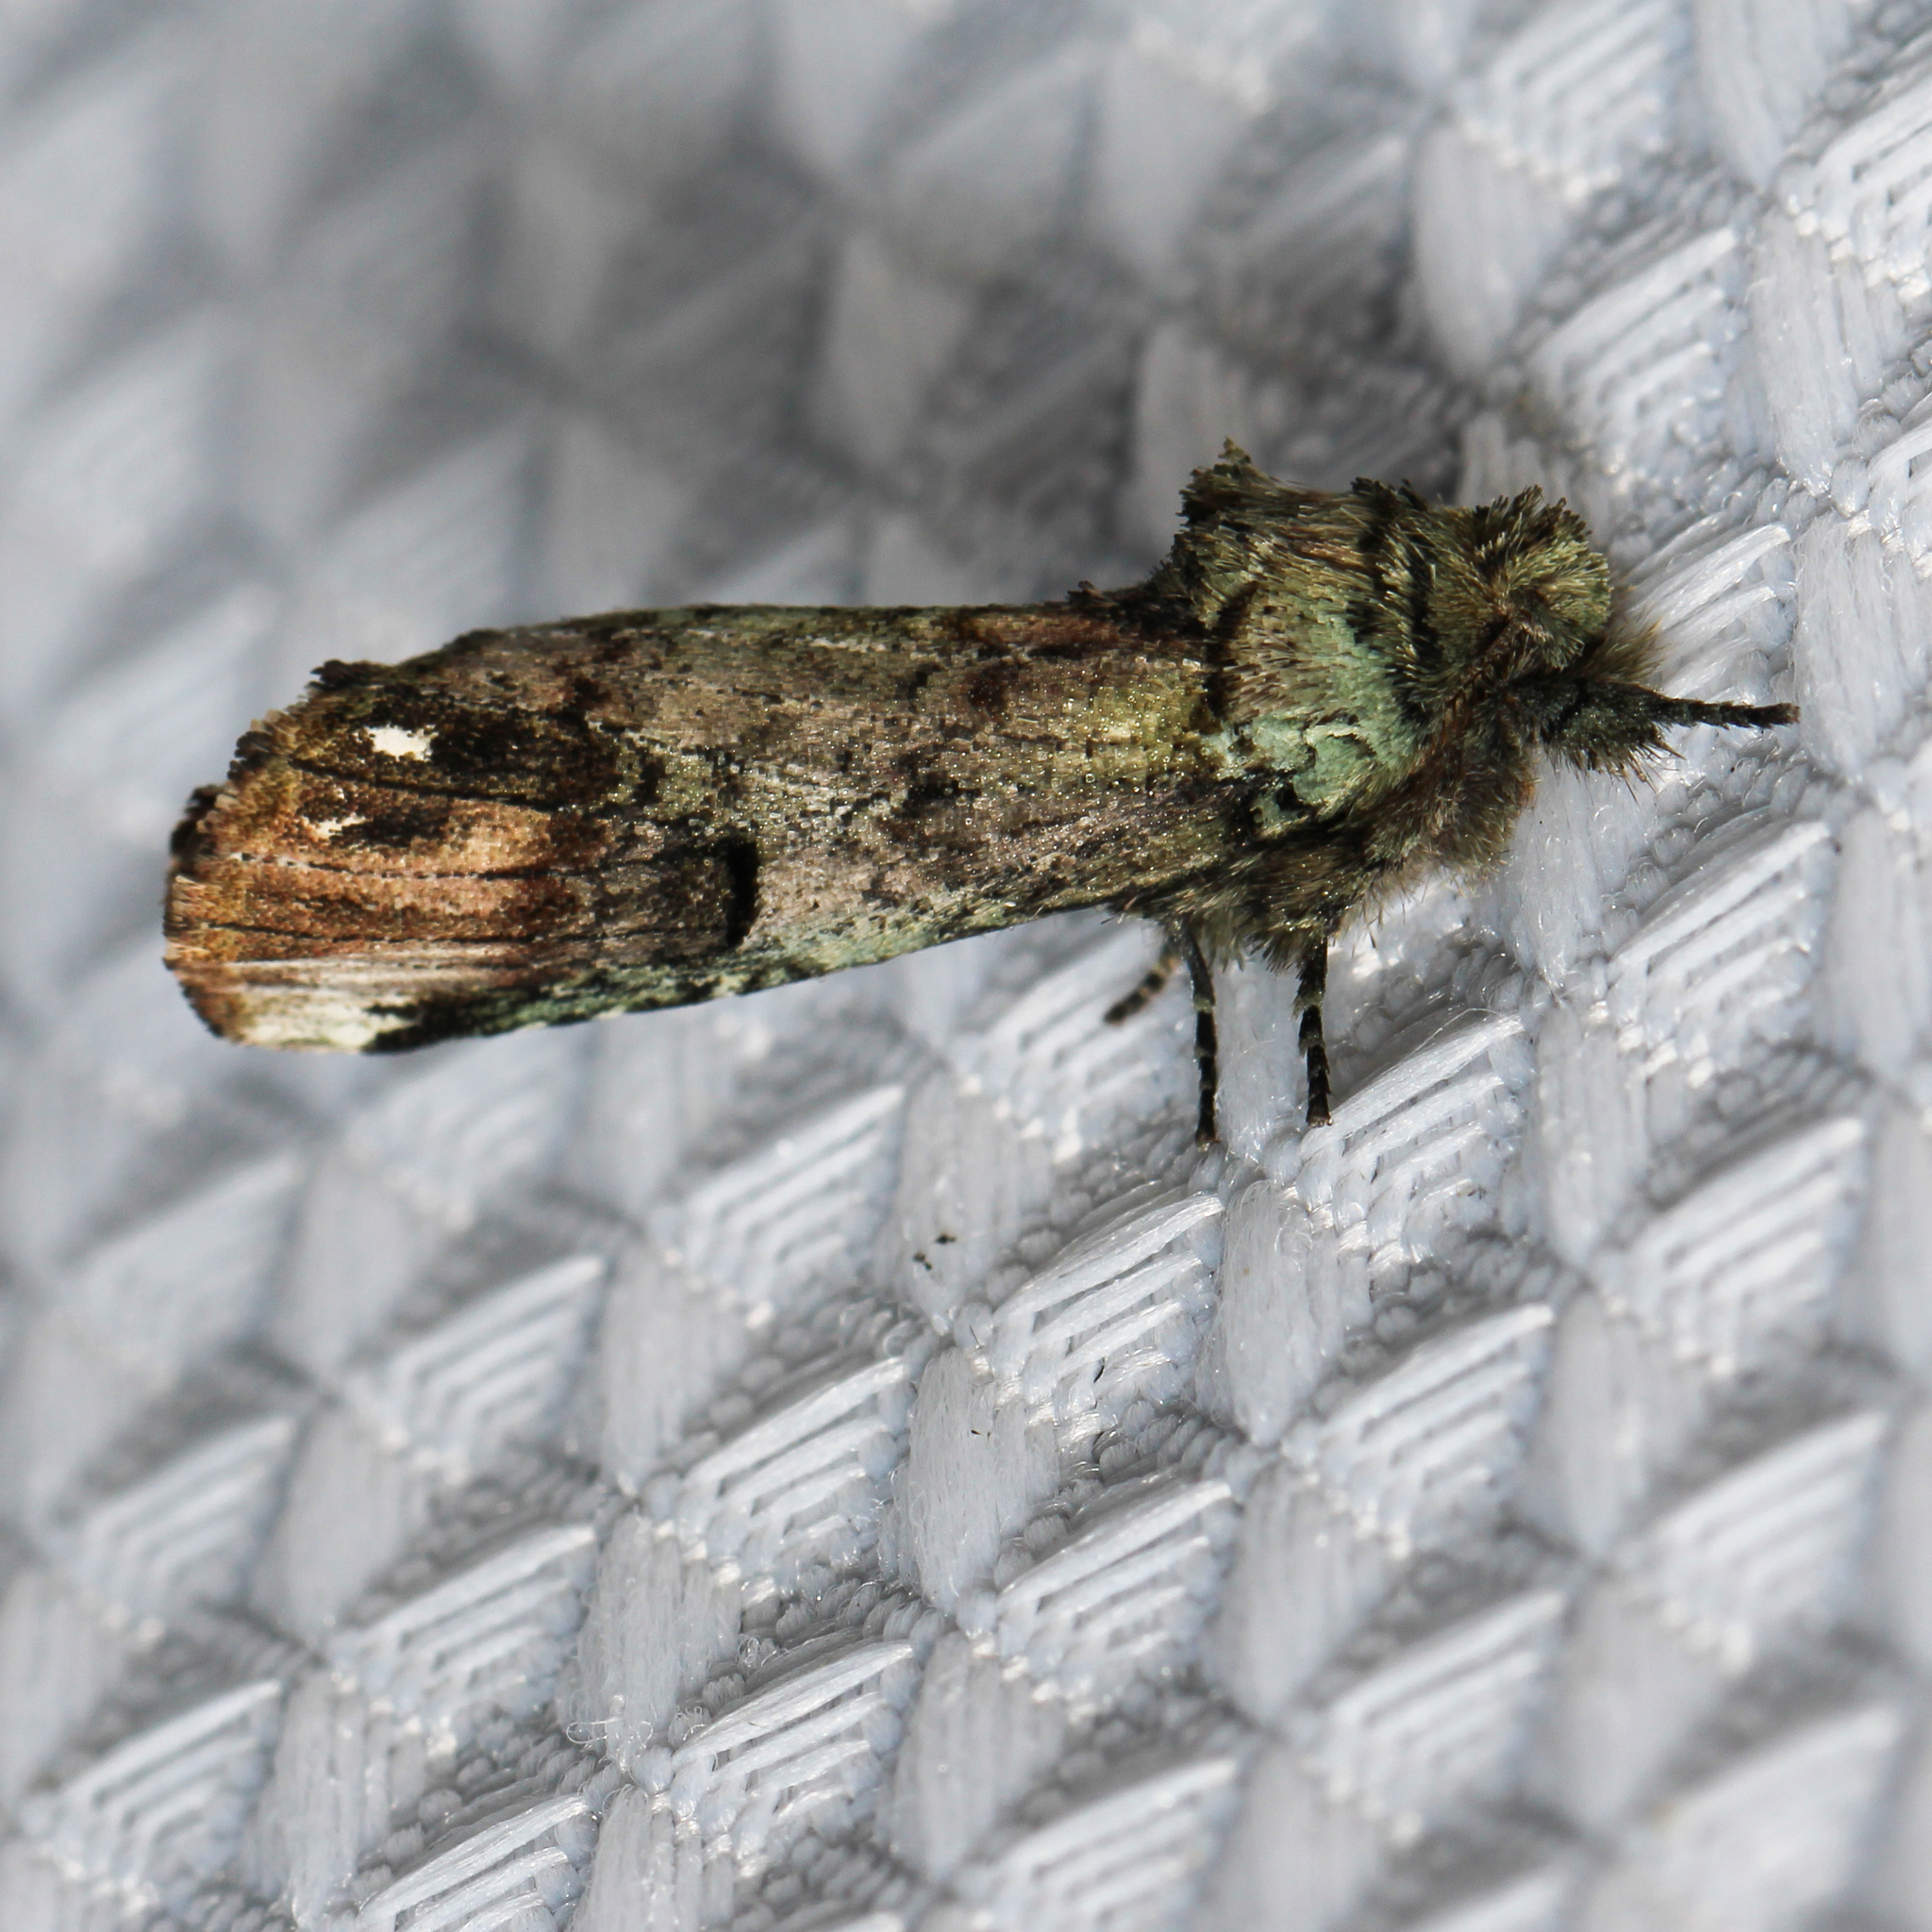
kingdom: Animalia
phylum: Arthropoda
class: Insecta
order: Lepidoptera
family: Notodontidae
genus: Schizura
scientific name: Schizura
